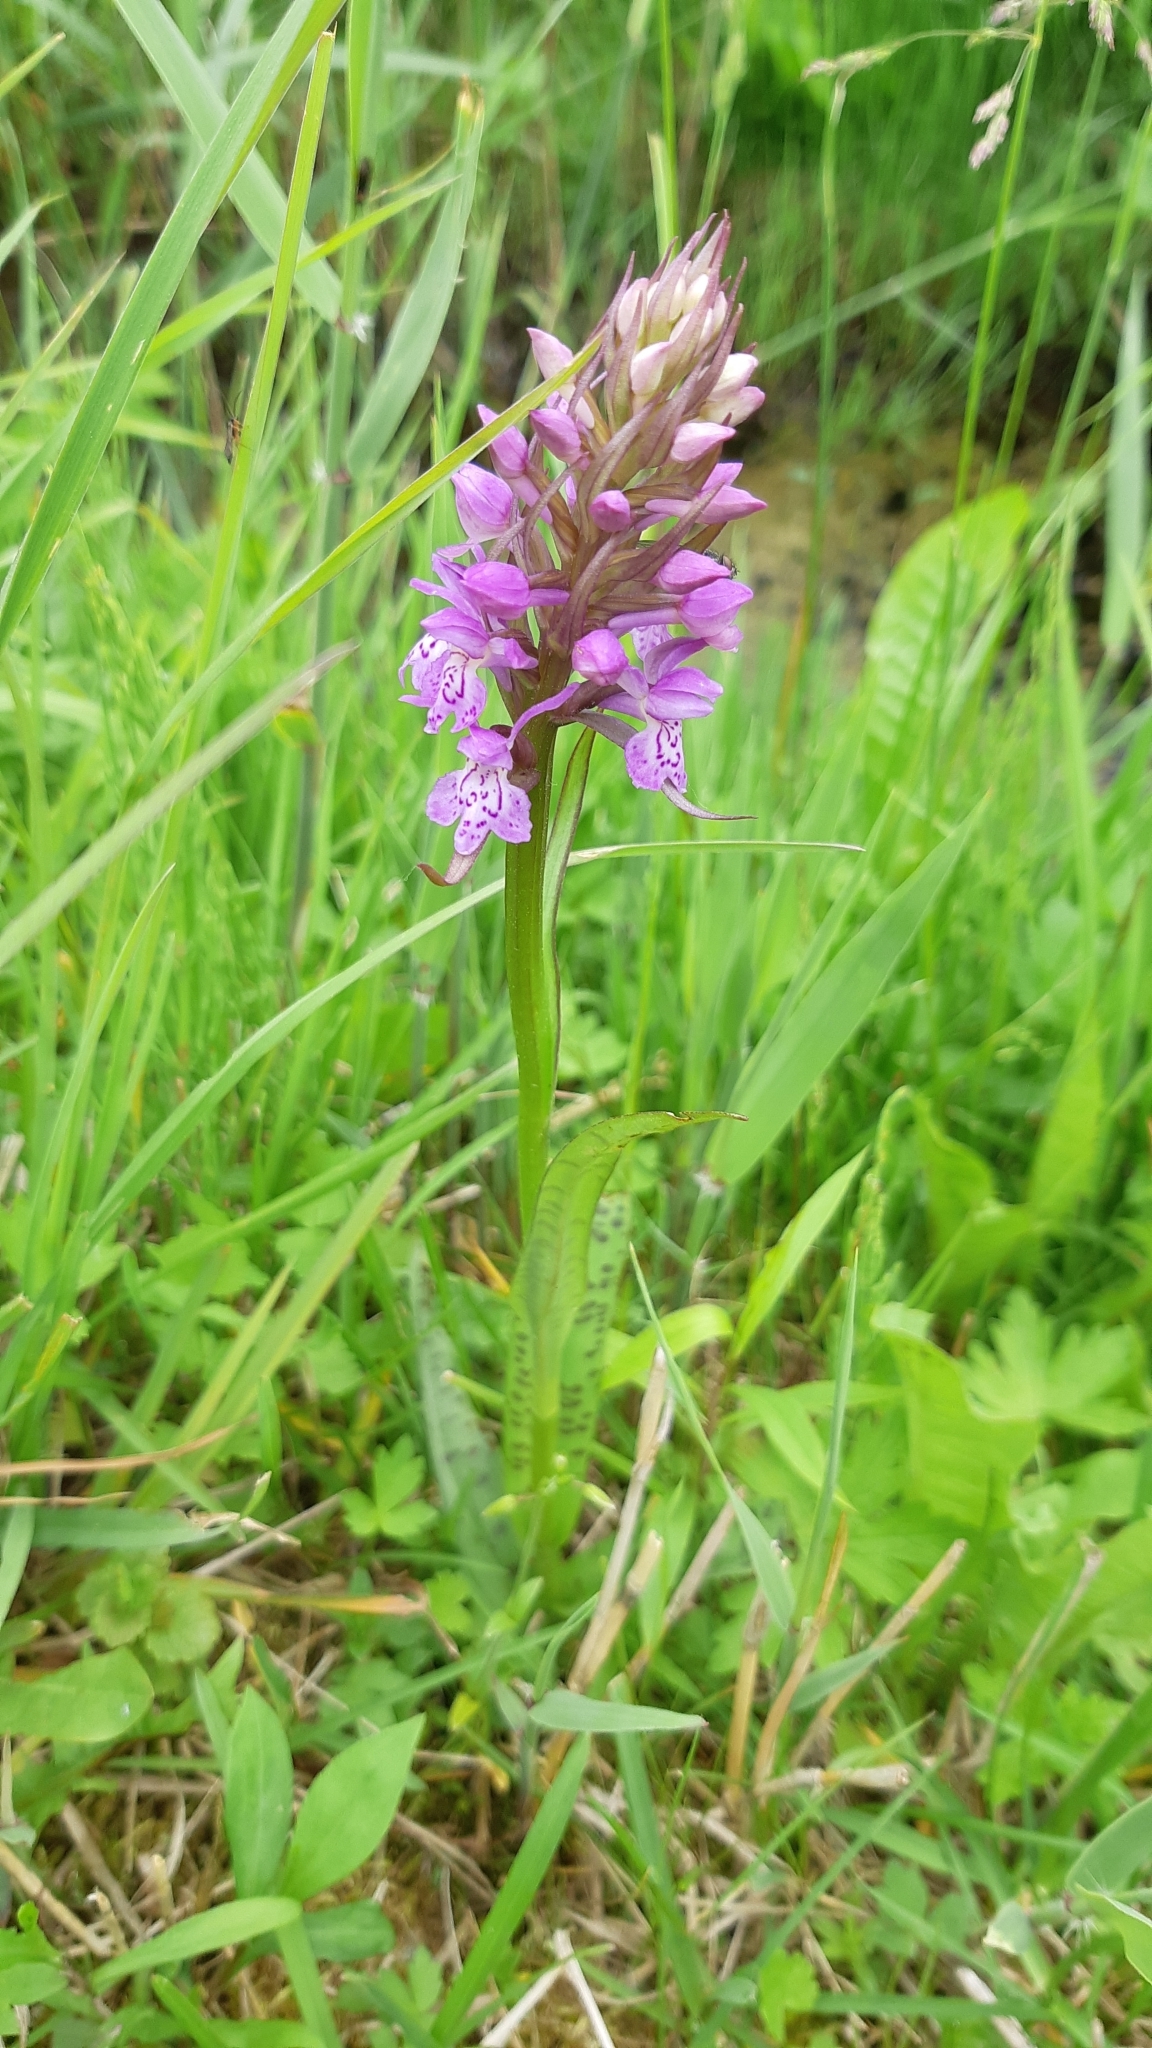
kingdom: Plantae
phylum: Tracheophyta
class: Liliopsida
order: Asparagales
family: Orchidaceae
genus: Dactylorhiza
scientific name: Dactylorhiza majalis
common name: Marsh orchid
